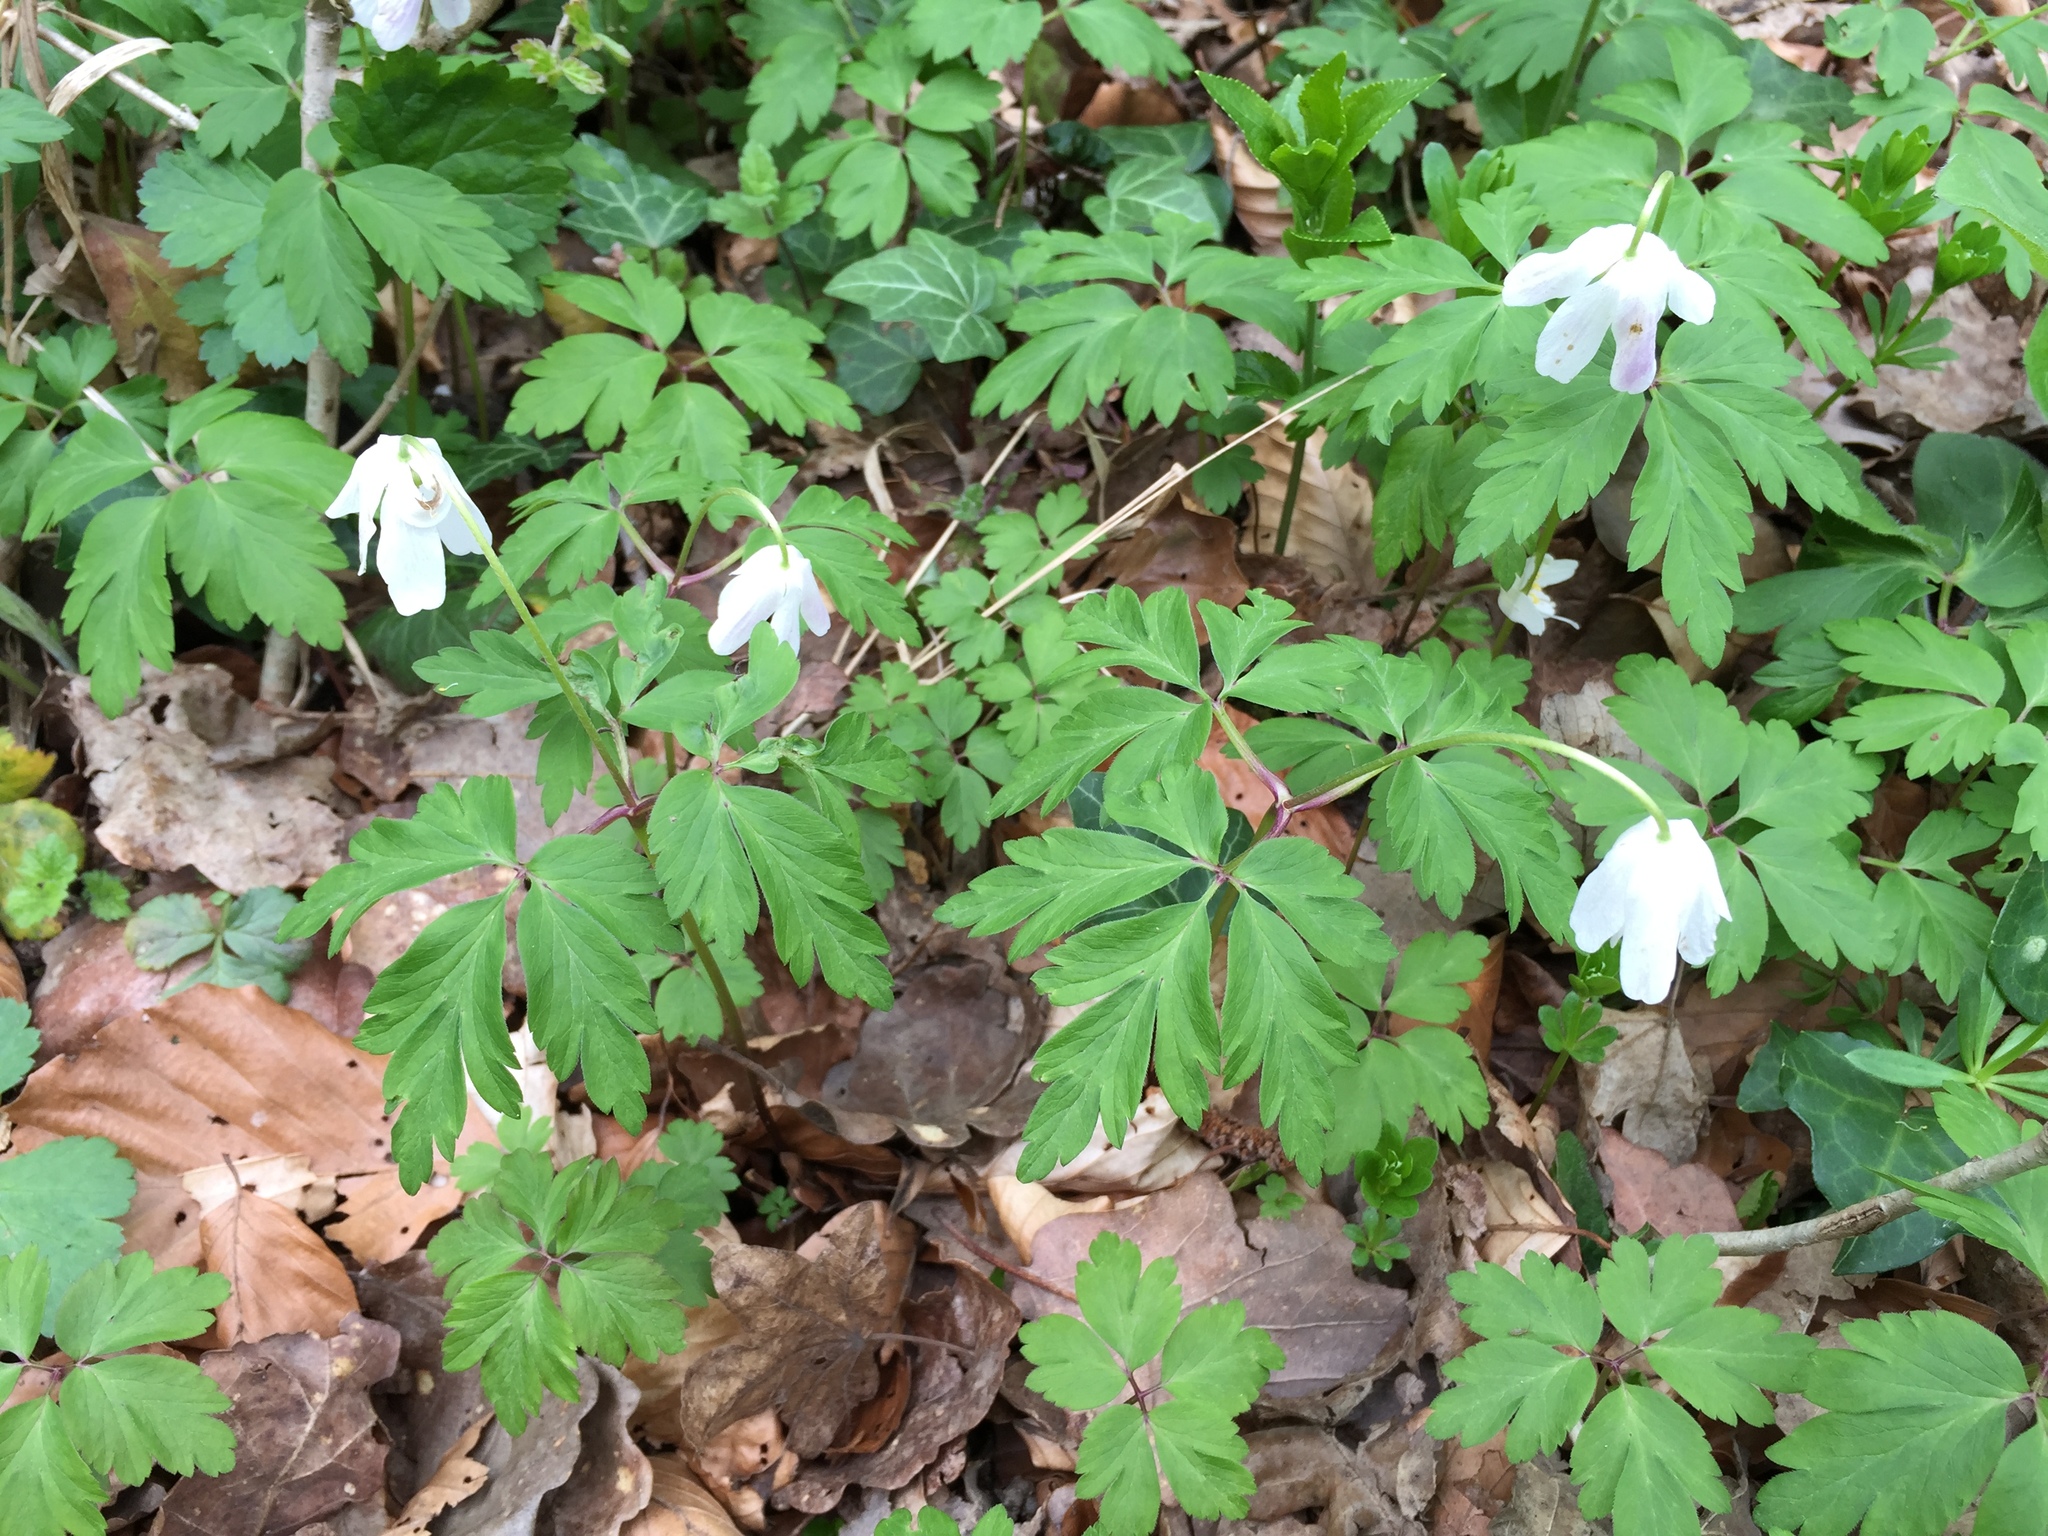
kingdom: Plantae
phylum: Tracheophyta
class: Magnoliopsida
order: Ranunculales
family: Ranunculaceae
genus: Anemone
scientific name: Anemone nemorosa
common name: Wood anemone
